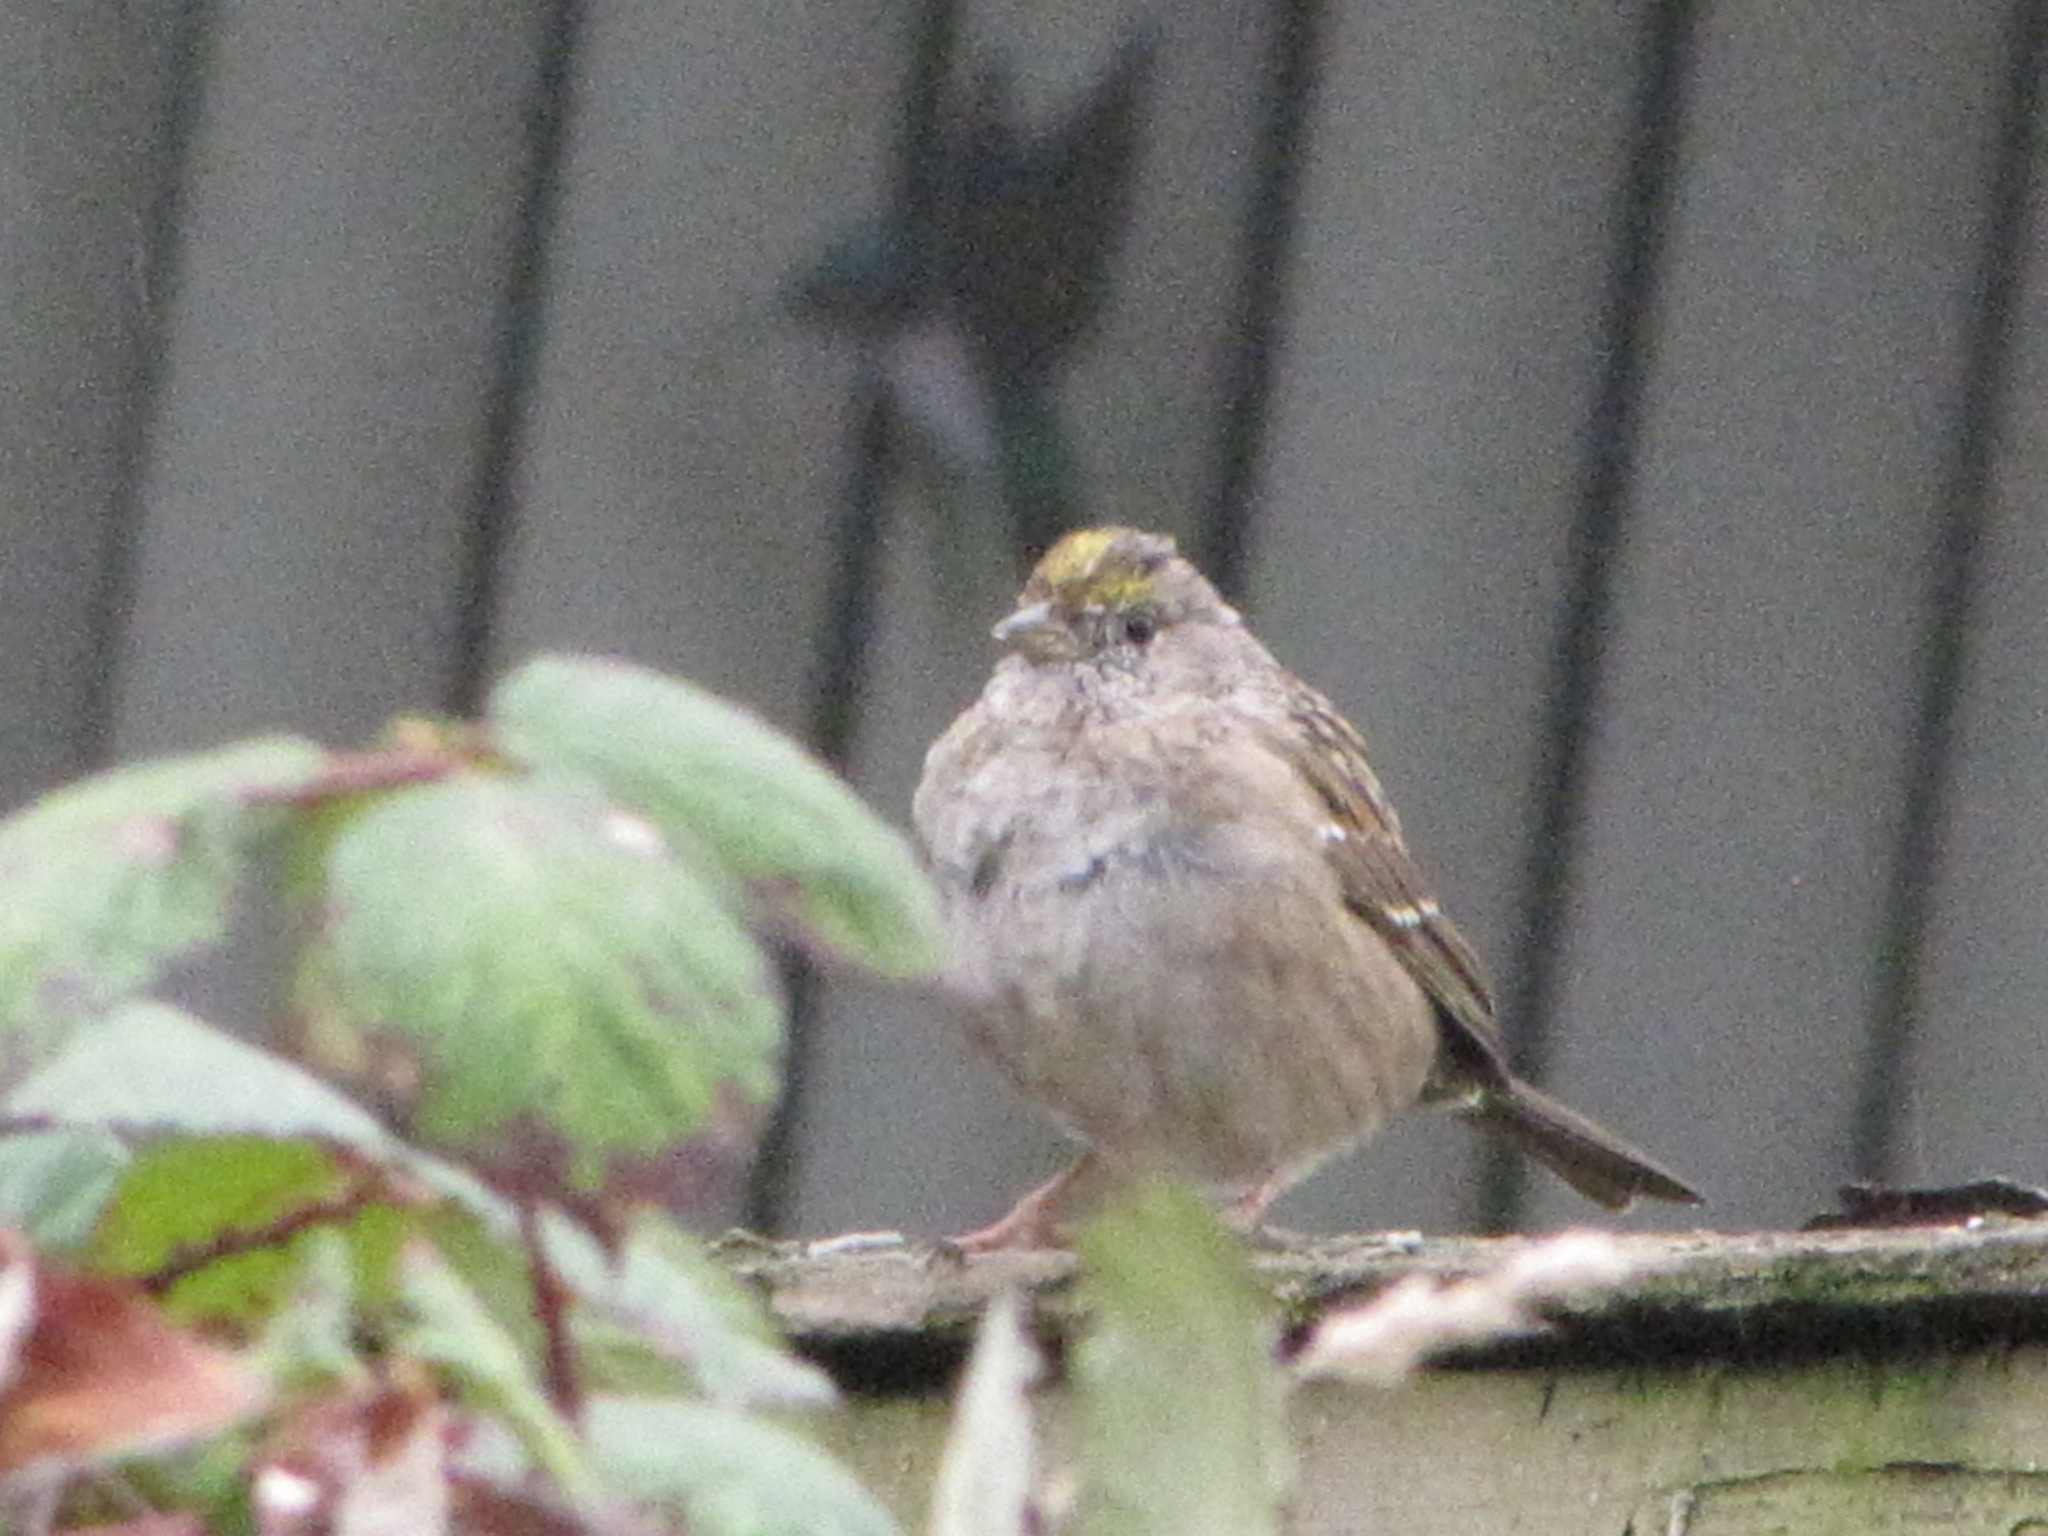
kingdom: Animalia
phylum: Chordata
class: Aves
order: Passeriformes
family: Passerellidae
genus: Zonotrichia
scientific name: Zonotrichia atricapilla
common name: Golden-crowned sparrow
